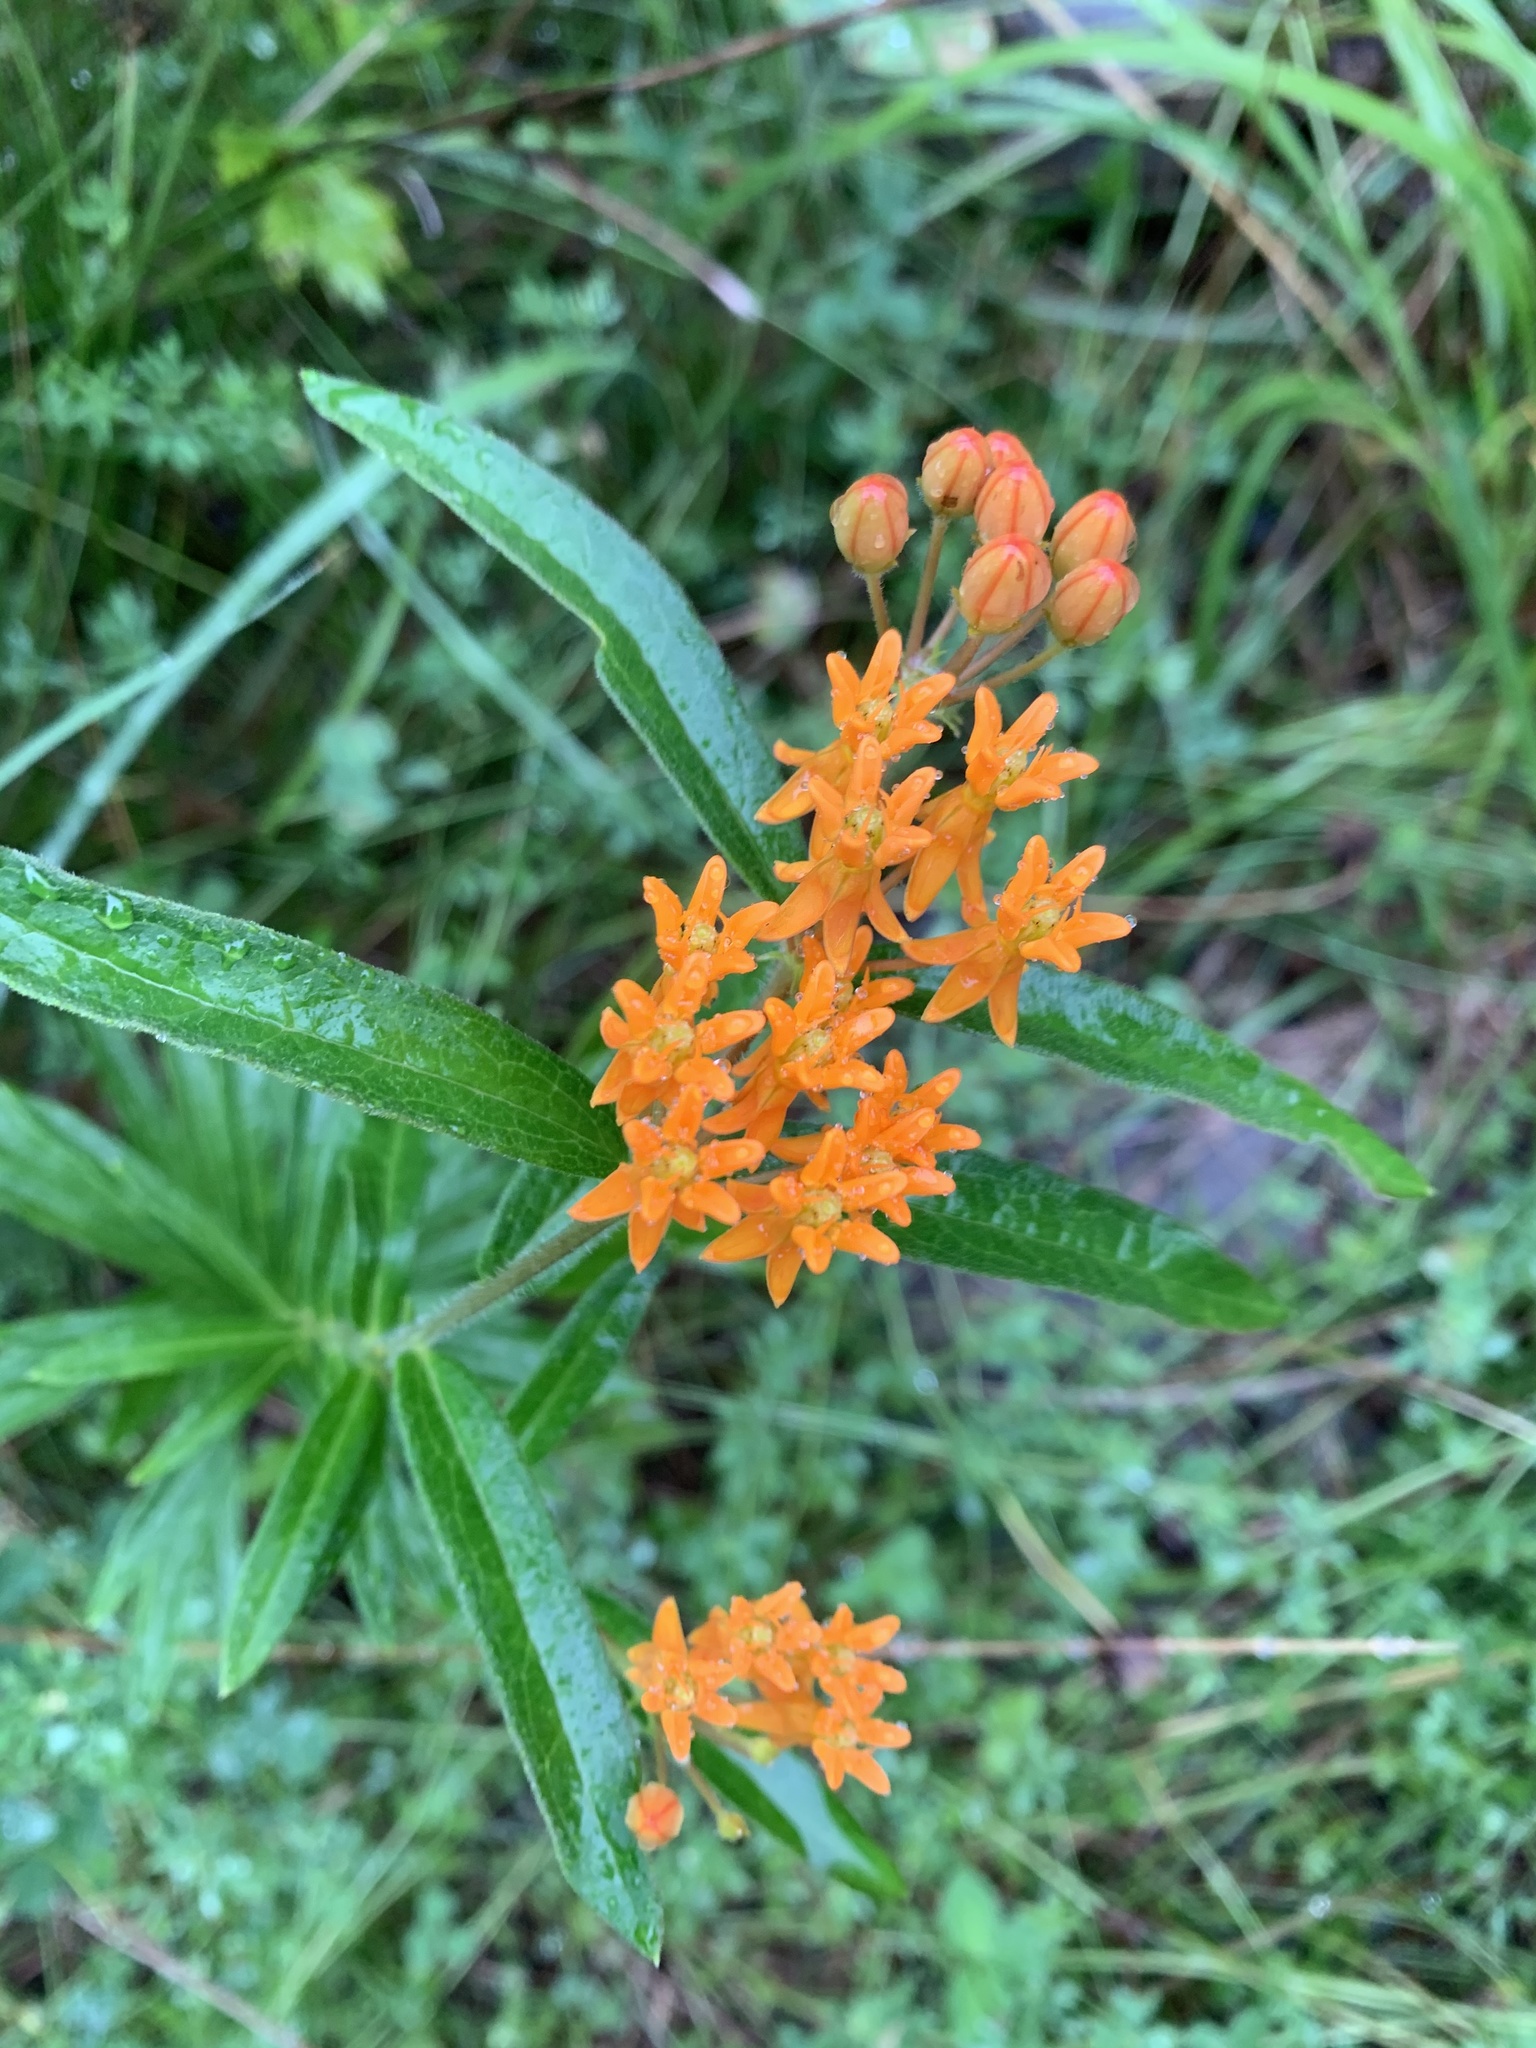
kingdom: Plantae
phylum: Tracheophyta
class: Magnoliopsida
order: Gentianales
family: Apocynaceae
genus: Asclepias
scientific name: Asclepias tuberosa
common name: Butterfly milkweed
